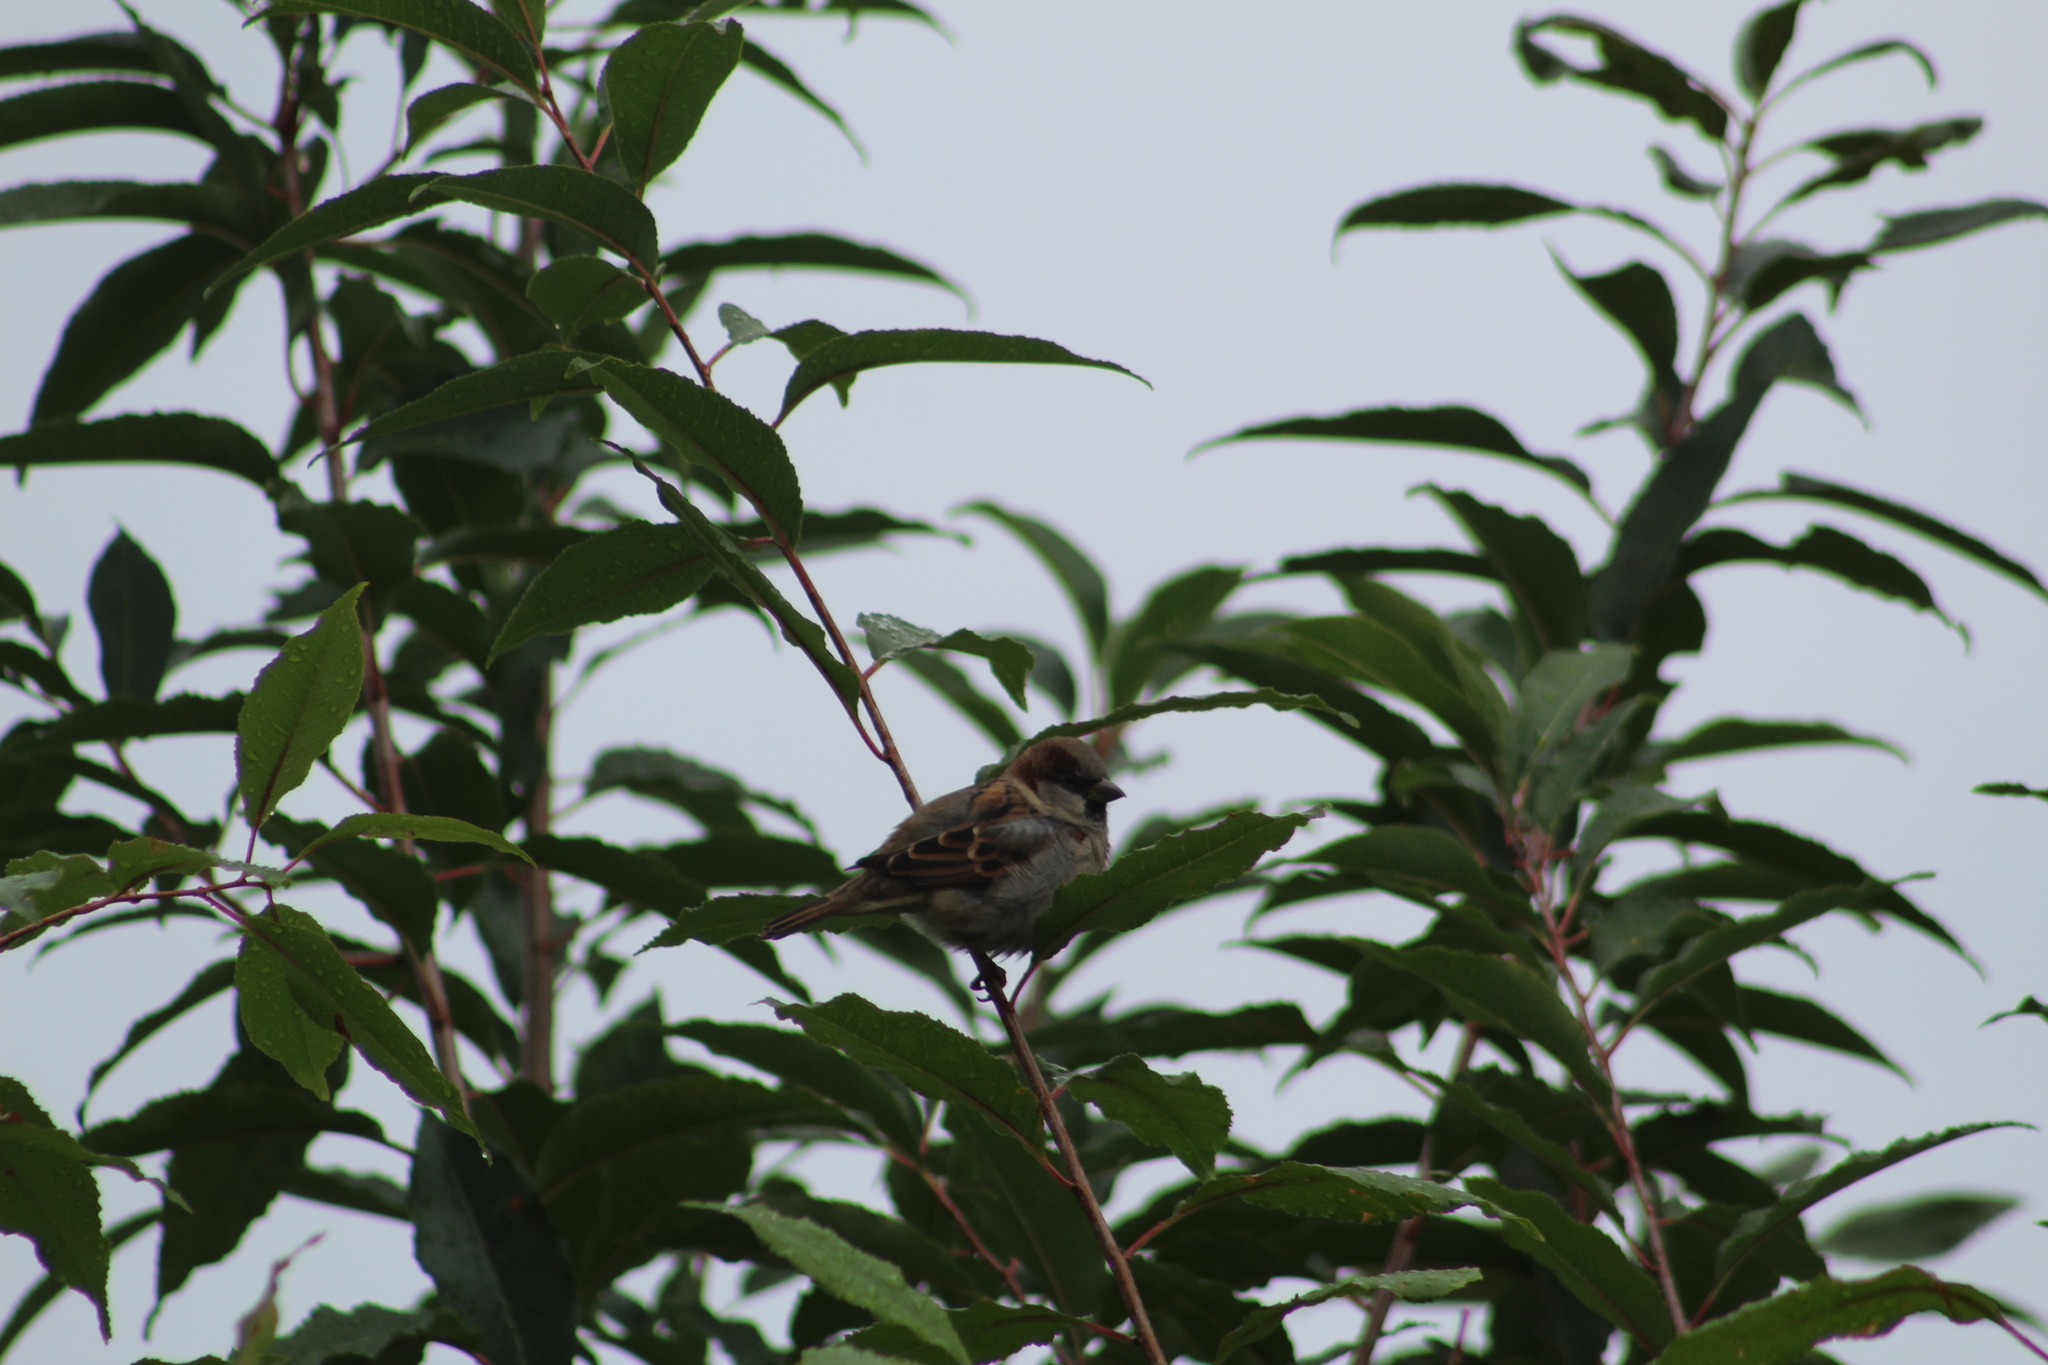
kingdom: Animalia
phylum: Chordata
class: Aves
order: Passeriformes
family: Passeridae
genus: Passer
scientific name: Passer domesticus
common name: House sparrow
